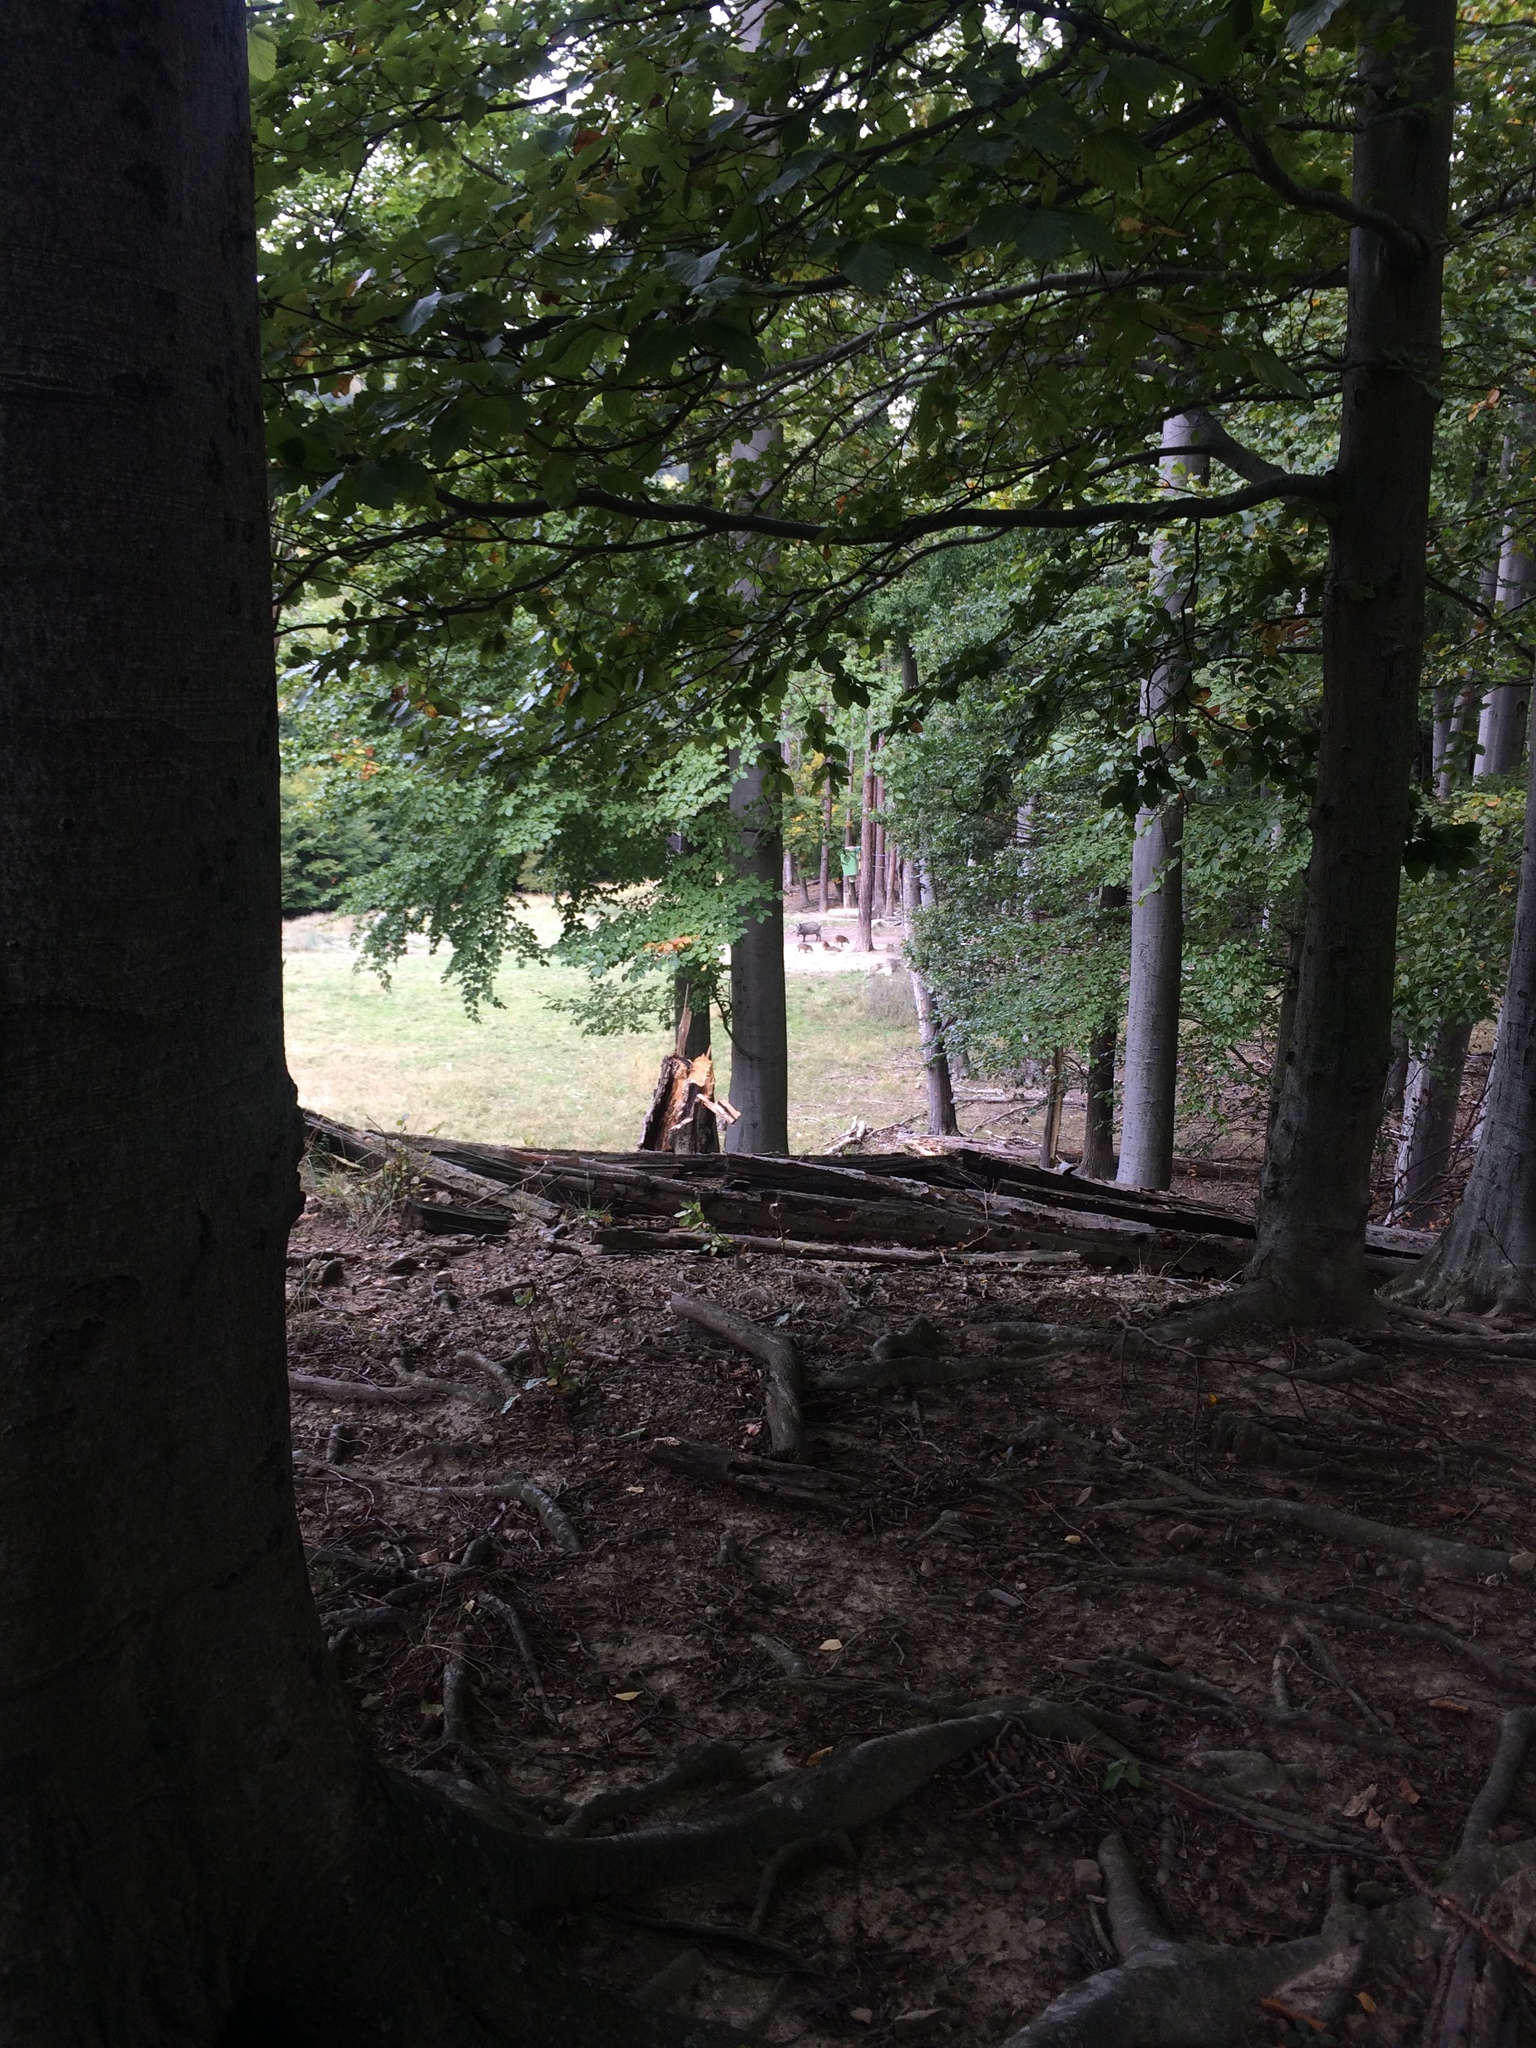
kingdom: Animalia
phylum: Chordata
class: Mammalia
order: Artiodactyla
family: Suidae
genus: Sus
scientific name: Sus scrofa
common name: Wild boar
